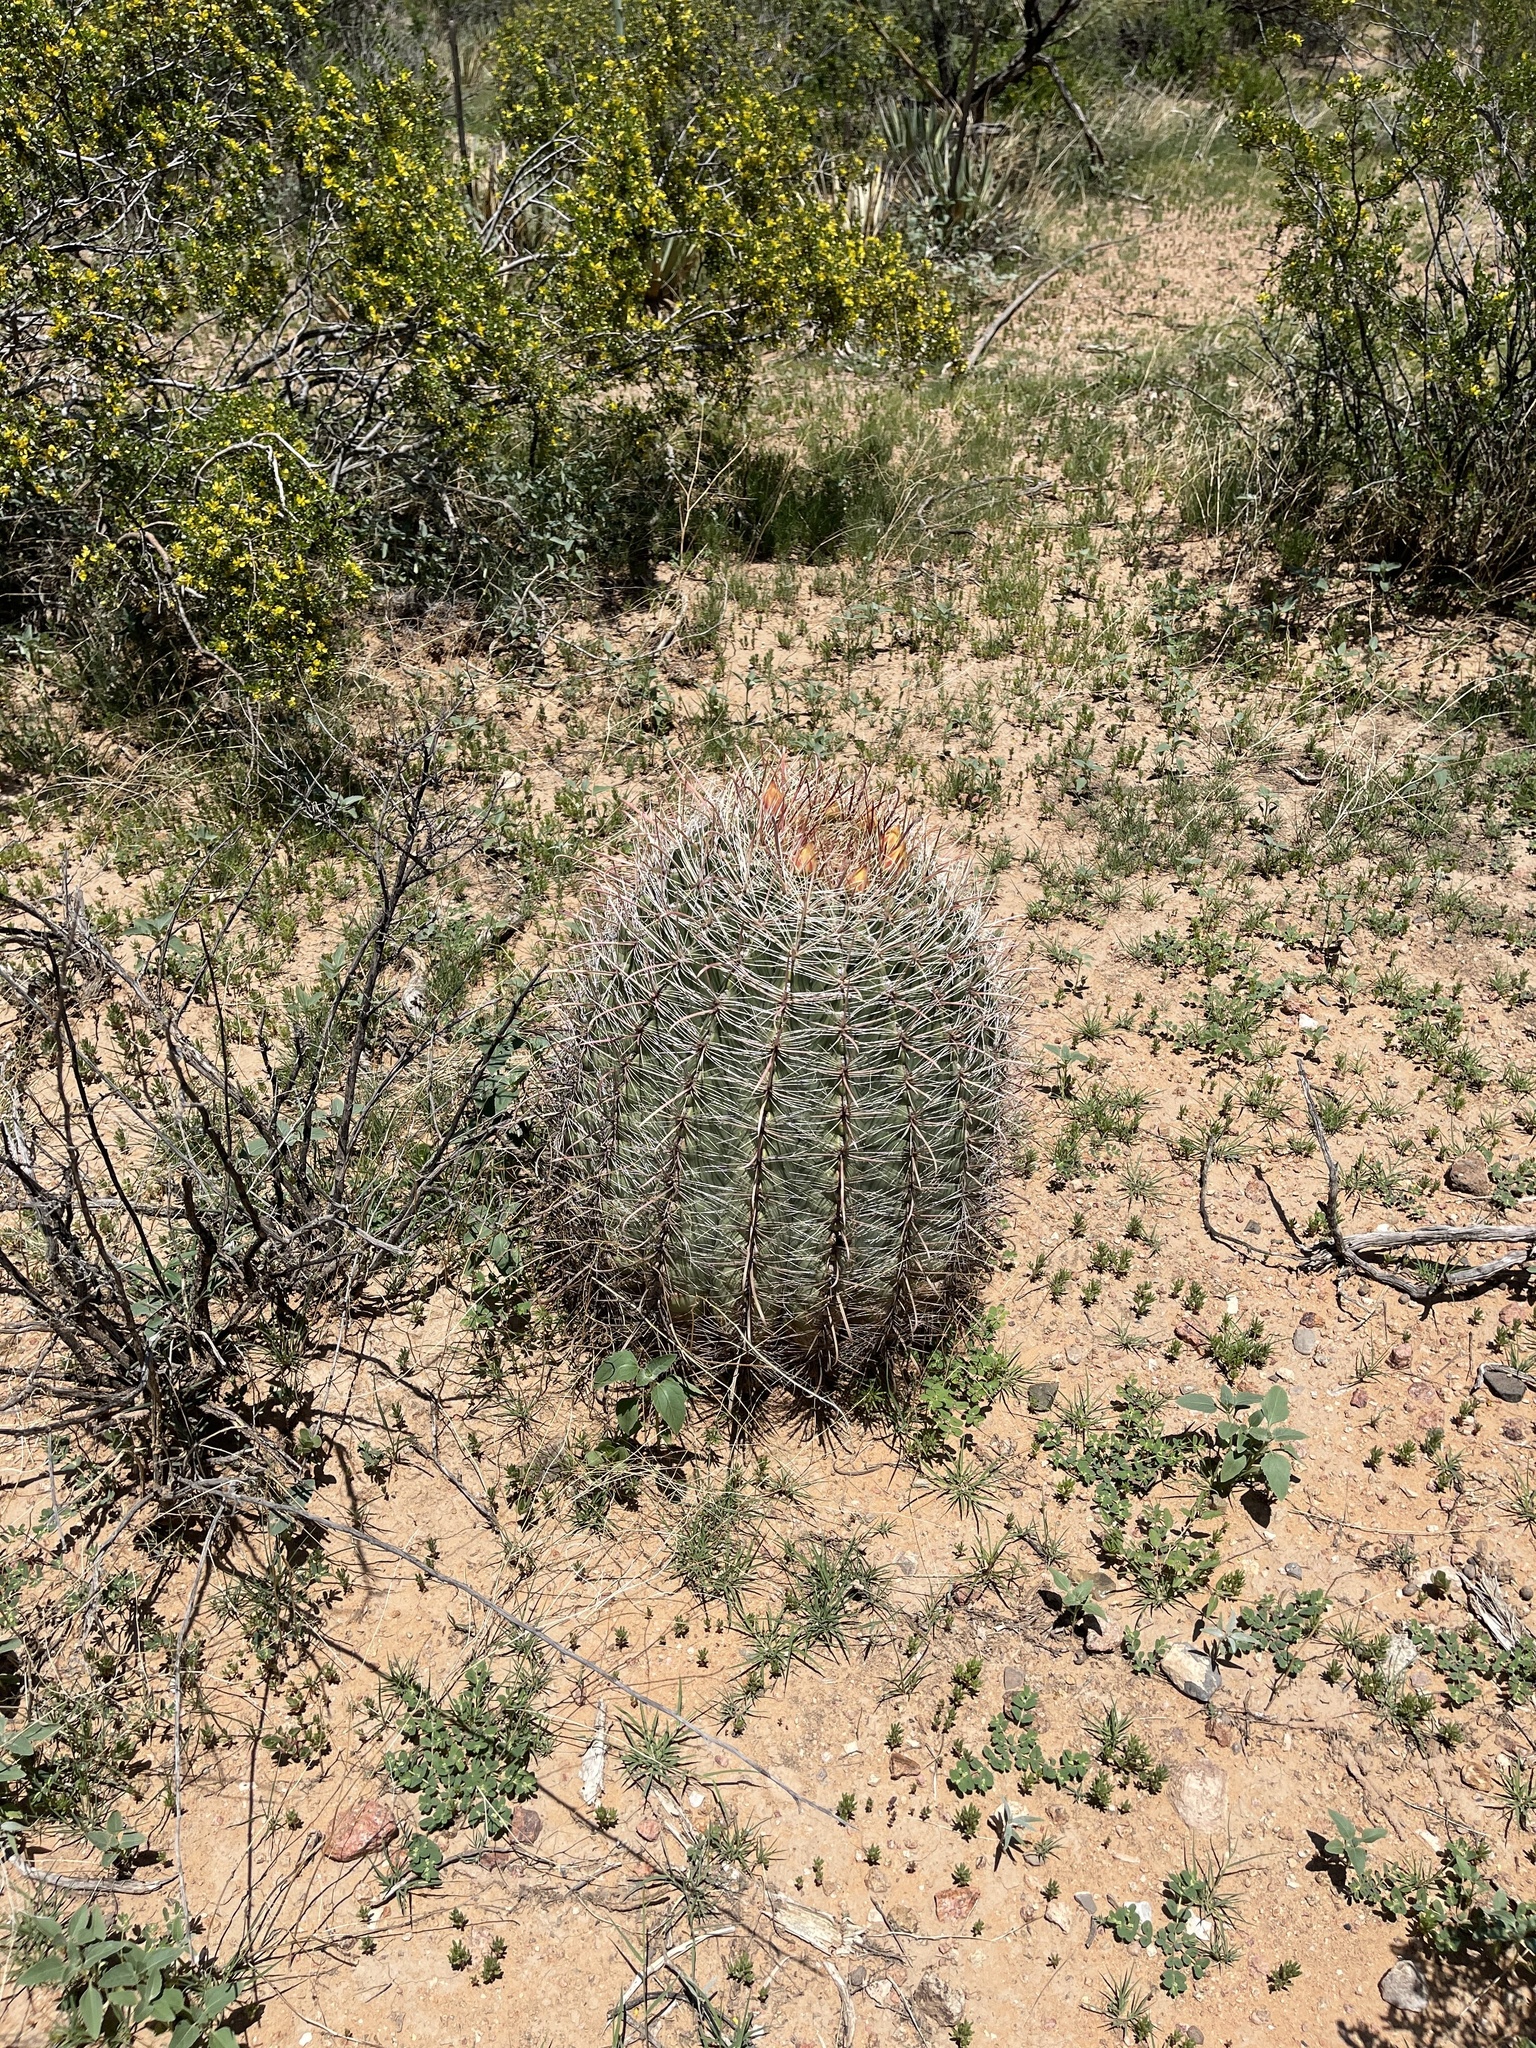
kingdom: Plantae
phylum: Tracheophyta
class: Magnoliopsida
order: Caryophyllales
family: Cactaceae
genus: Ferocactus
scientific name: Ferocactus wislizeni
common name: Candy barrel cactus
